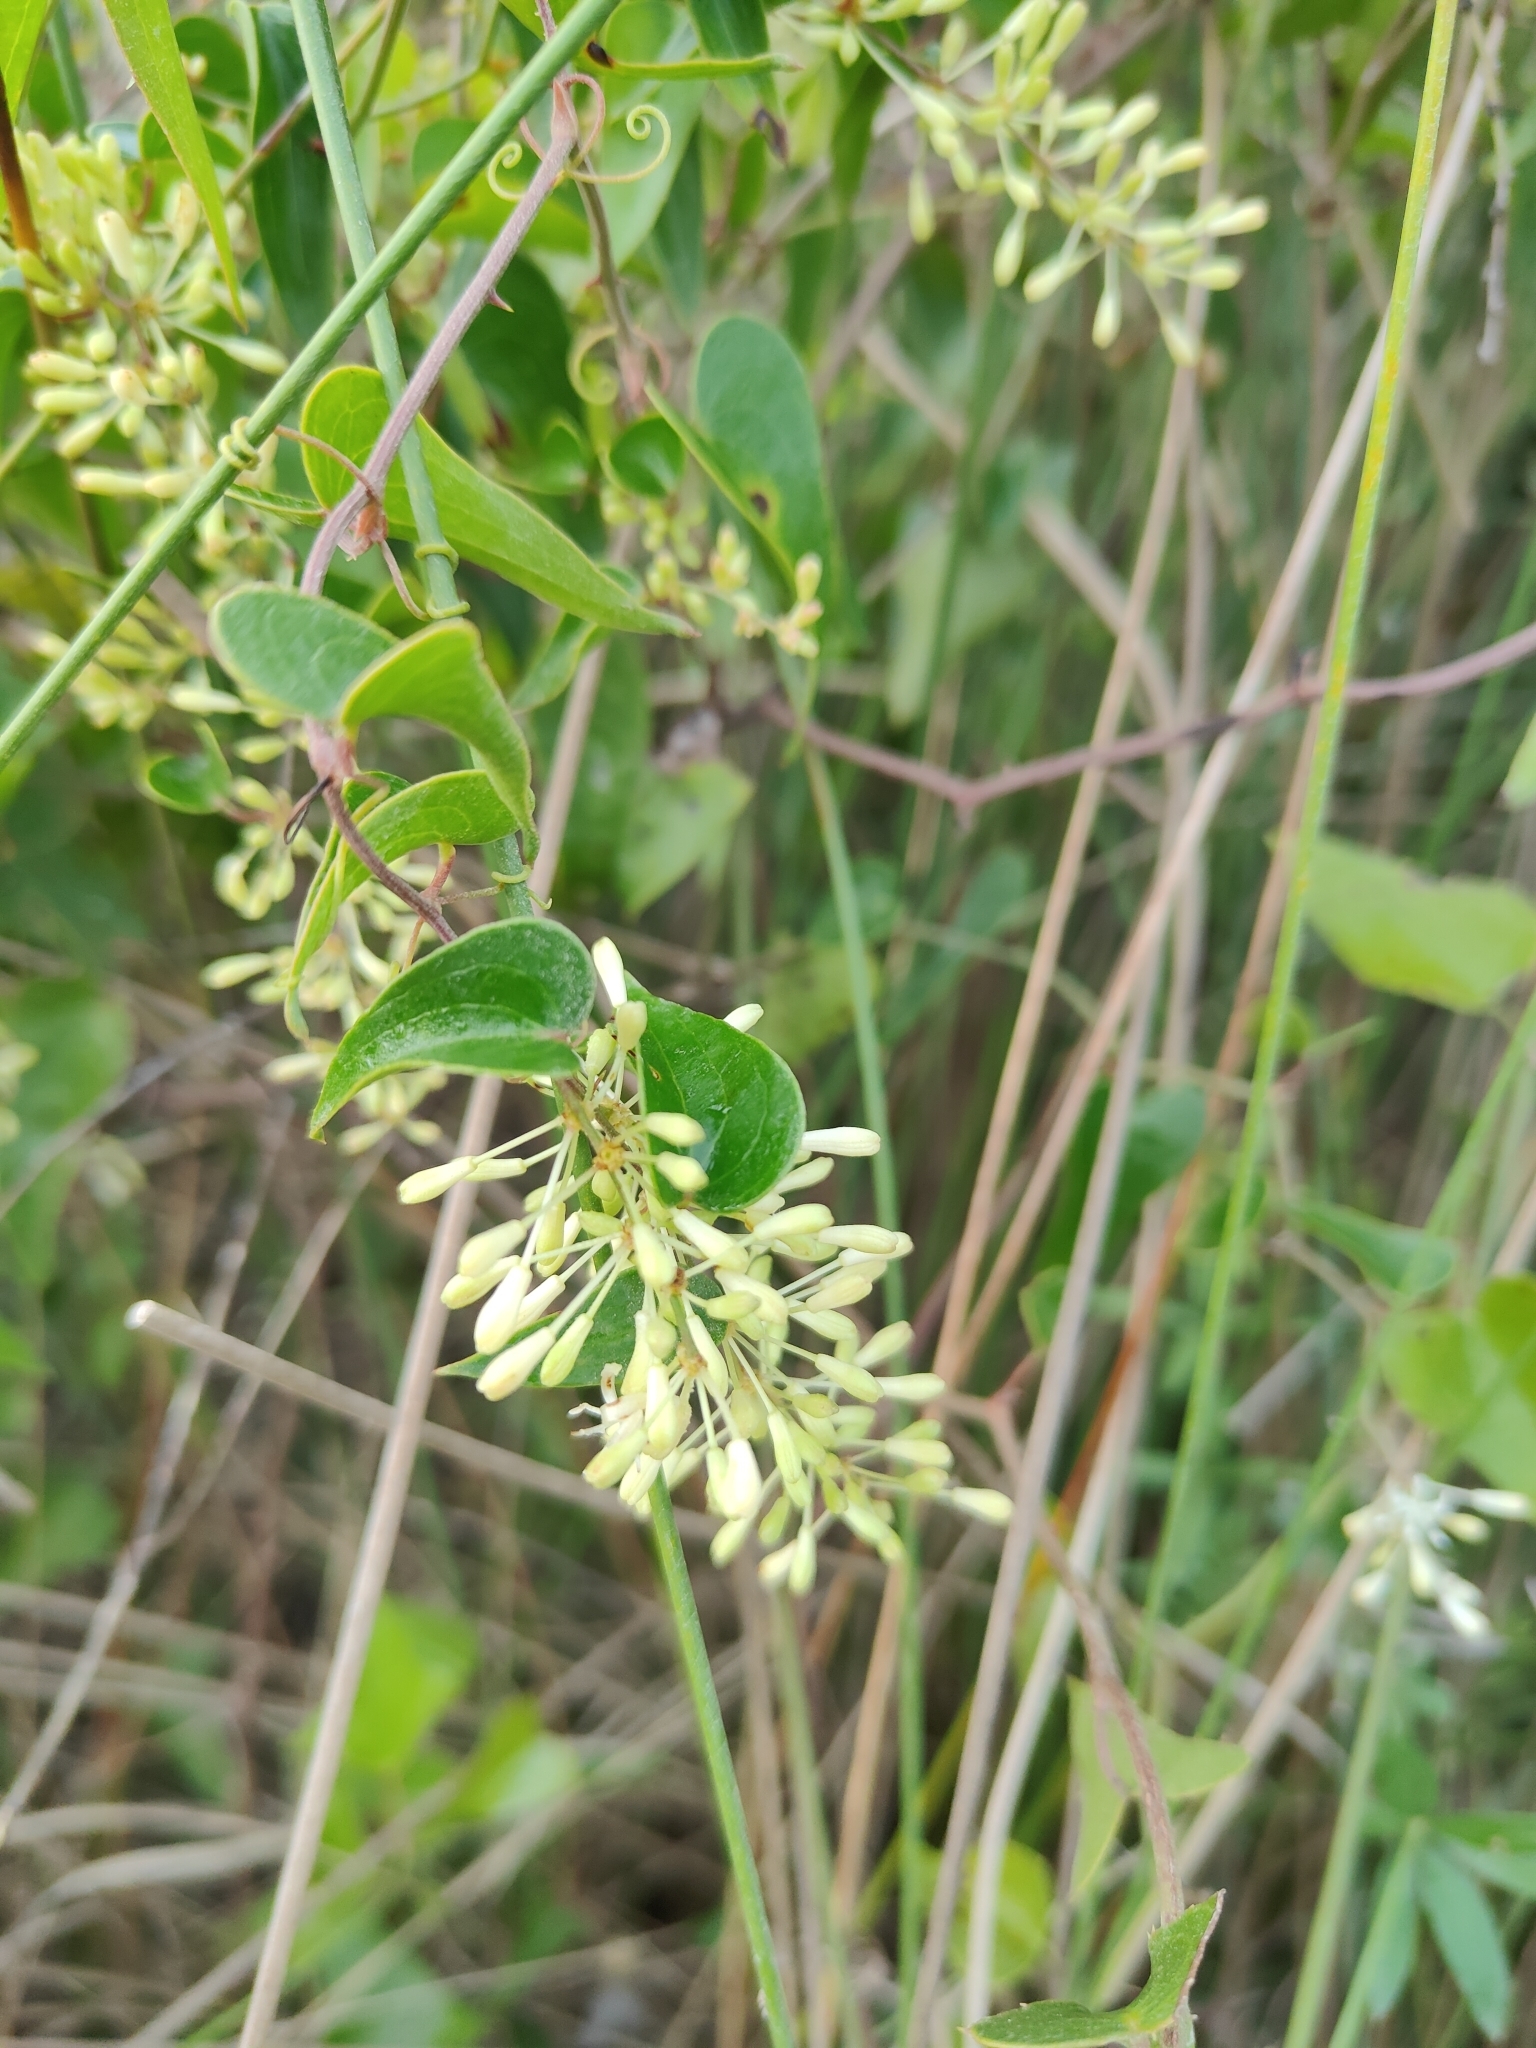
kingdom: Plantae
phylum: Tracheophyta
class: Liliopsida
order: Liliales
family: Smilacaceae
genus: Smilax
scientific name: Smilax aspera
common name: Common smilax
